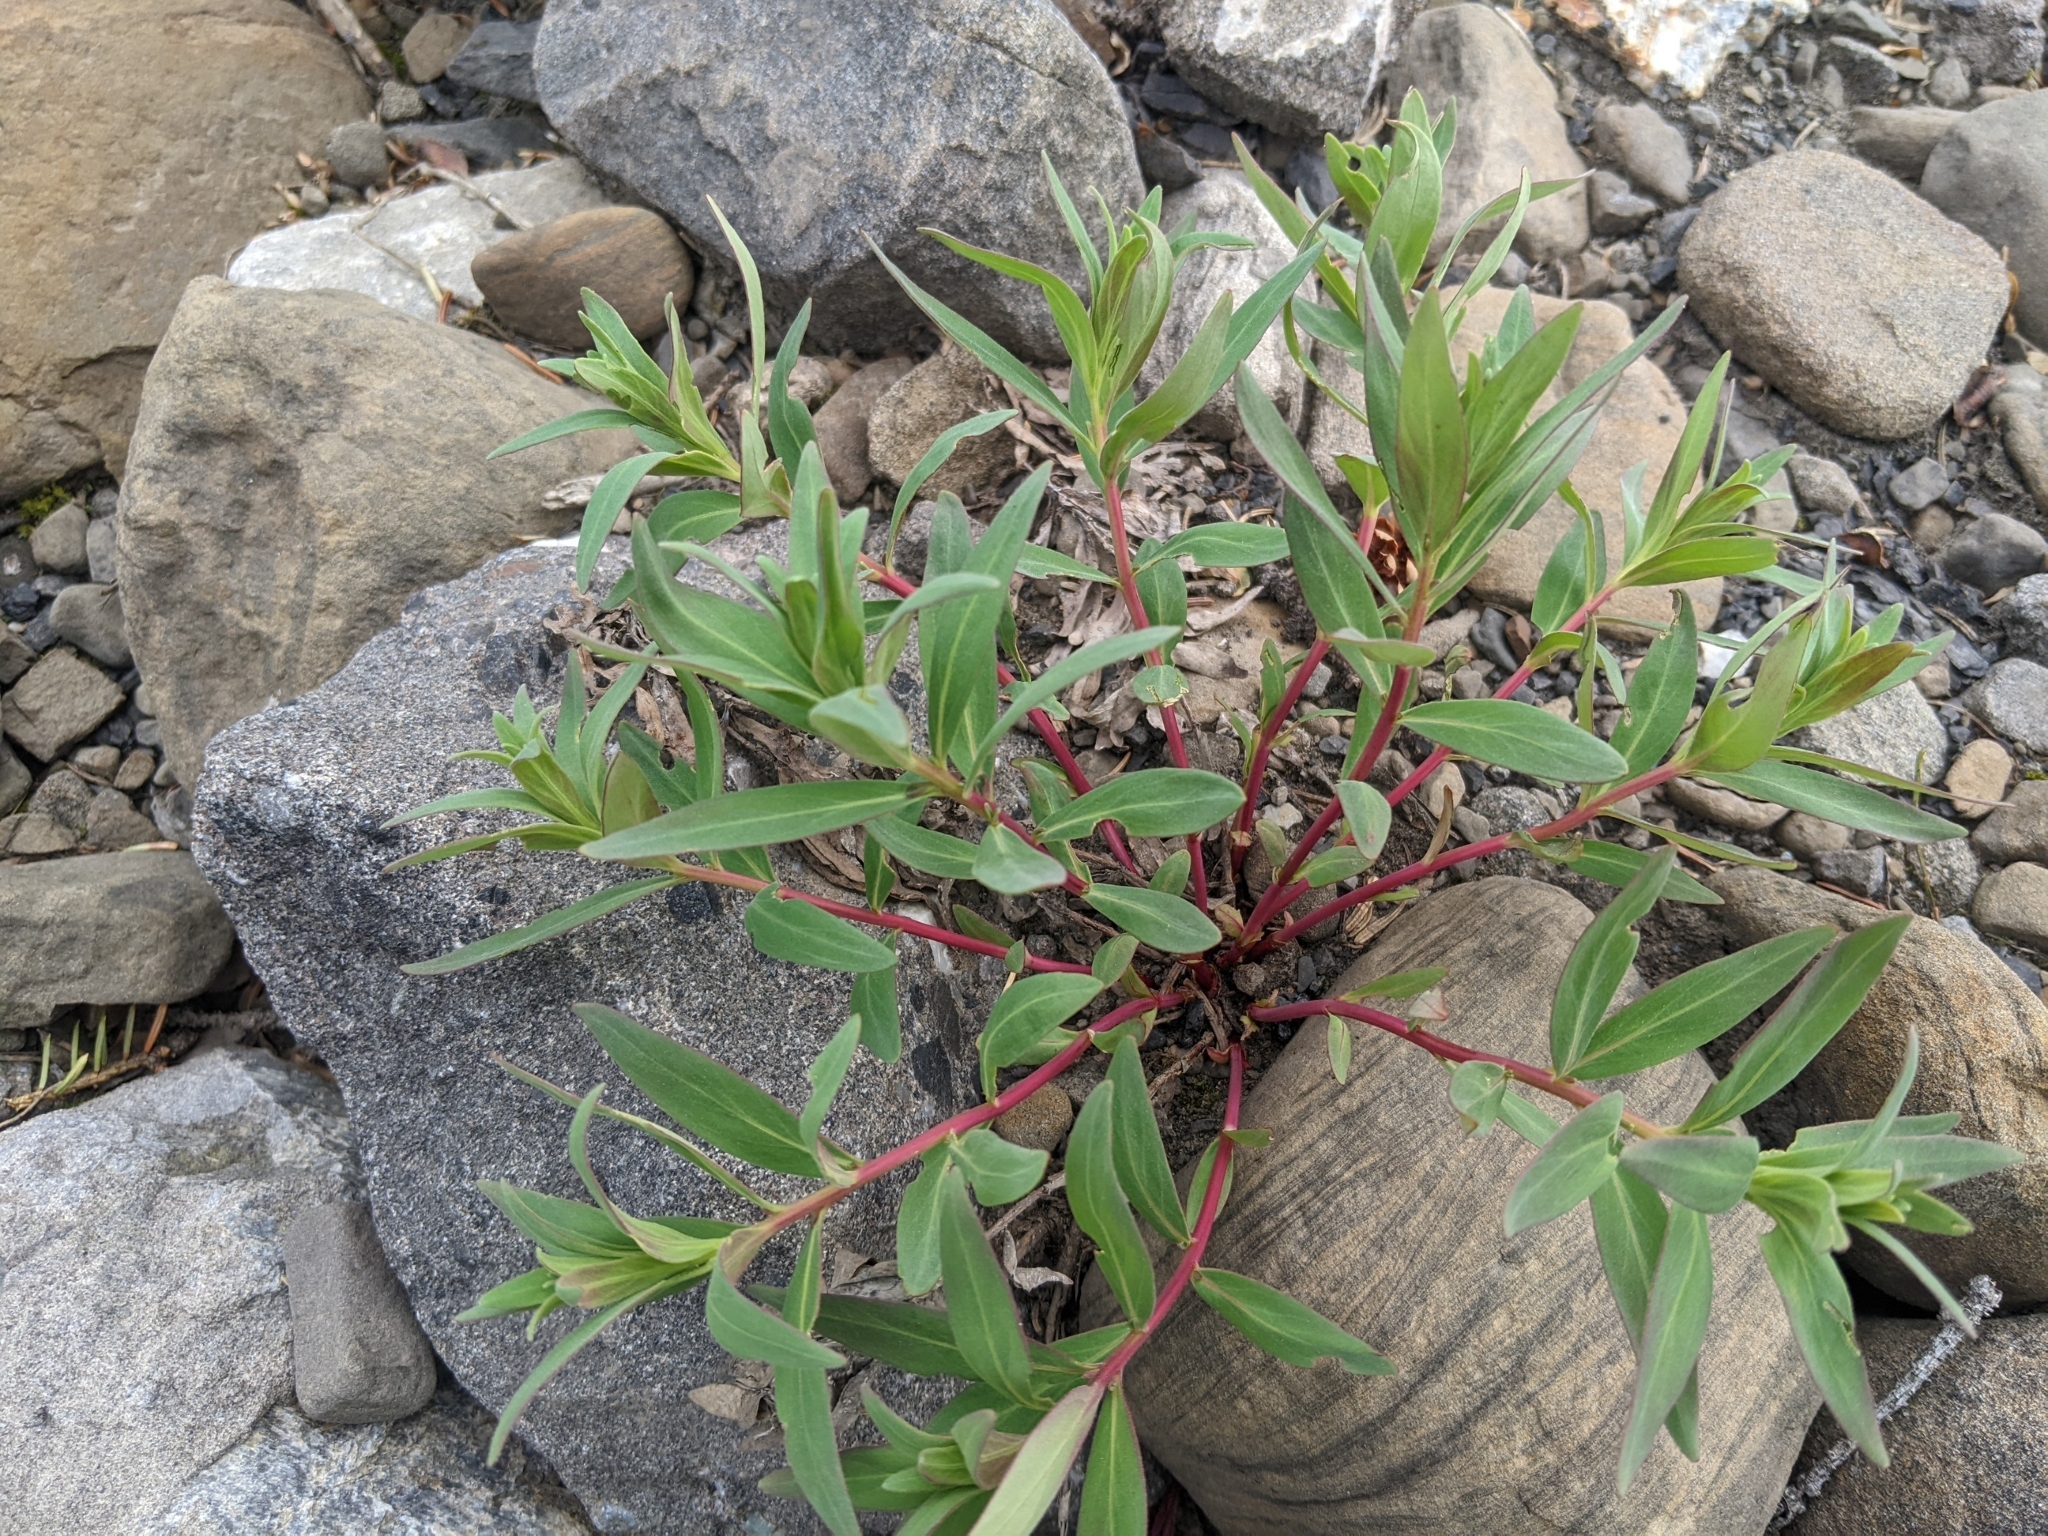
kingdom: Plantae
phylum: Tracheophyta
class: Magnoliopsida
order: Myrtales
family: Onagraceae
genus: Chamaenerion
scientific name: Chamaenerion latifolium
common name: Dwarf fireweed
